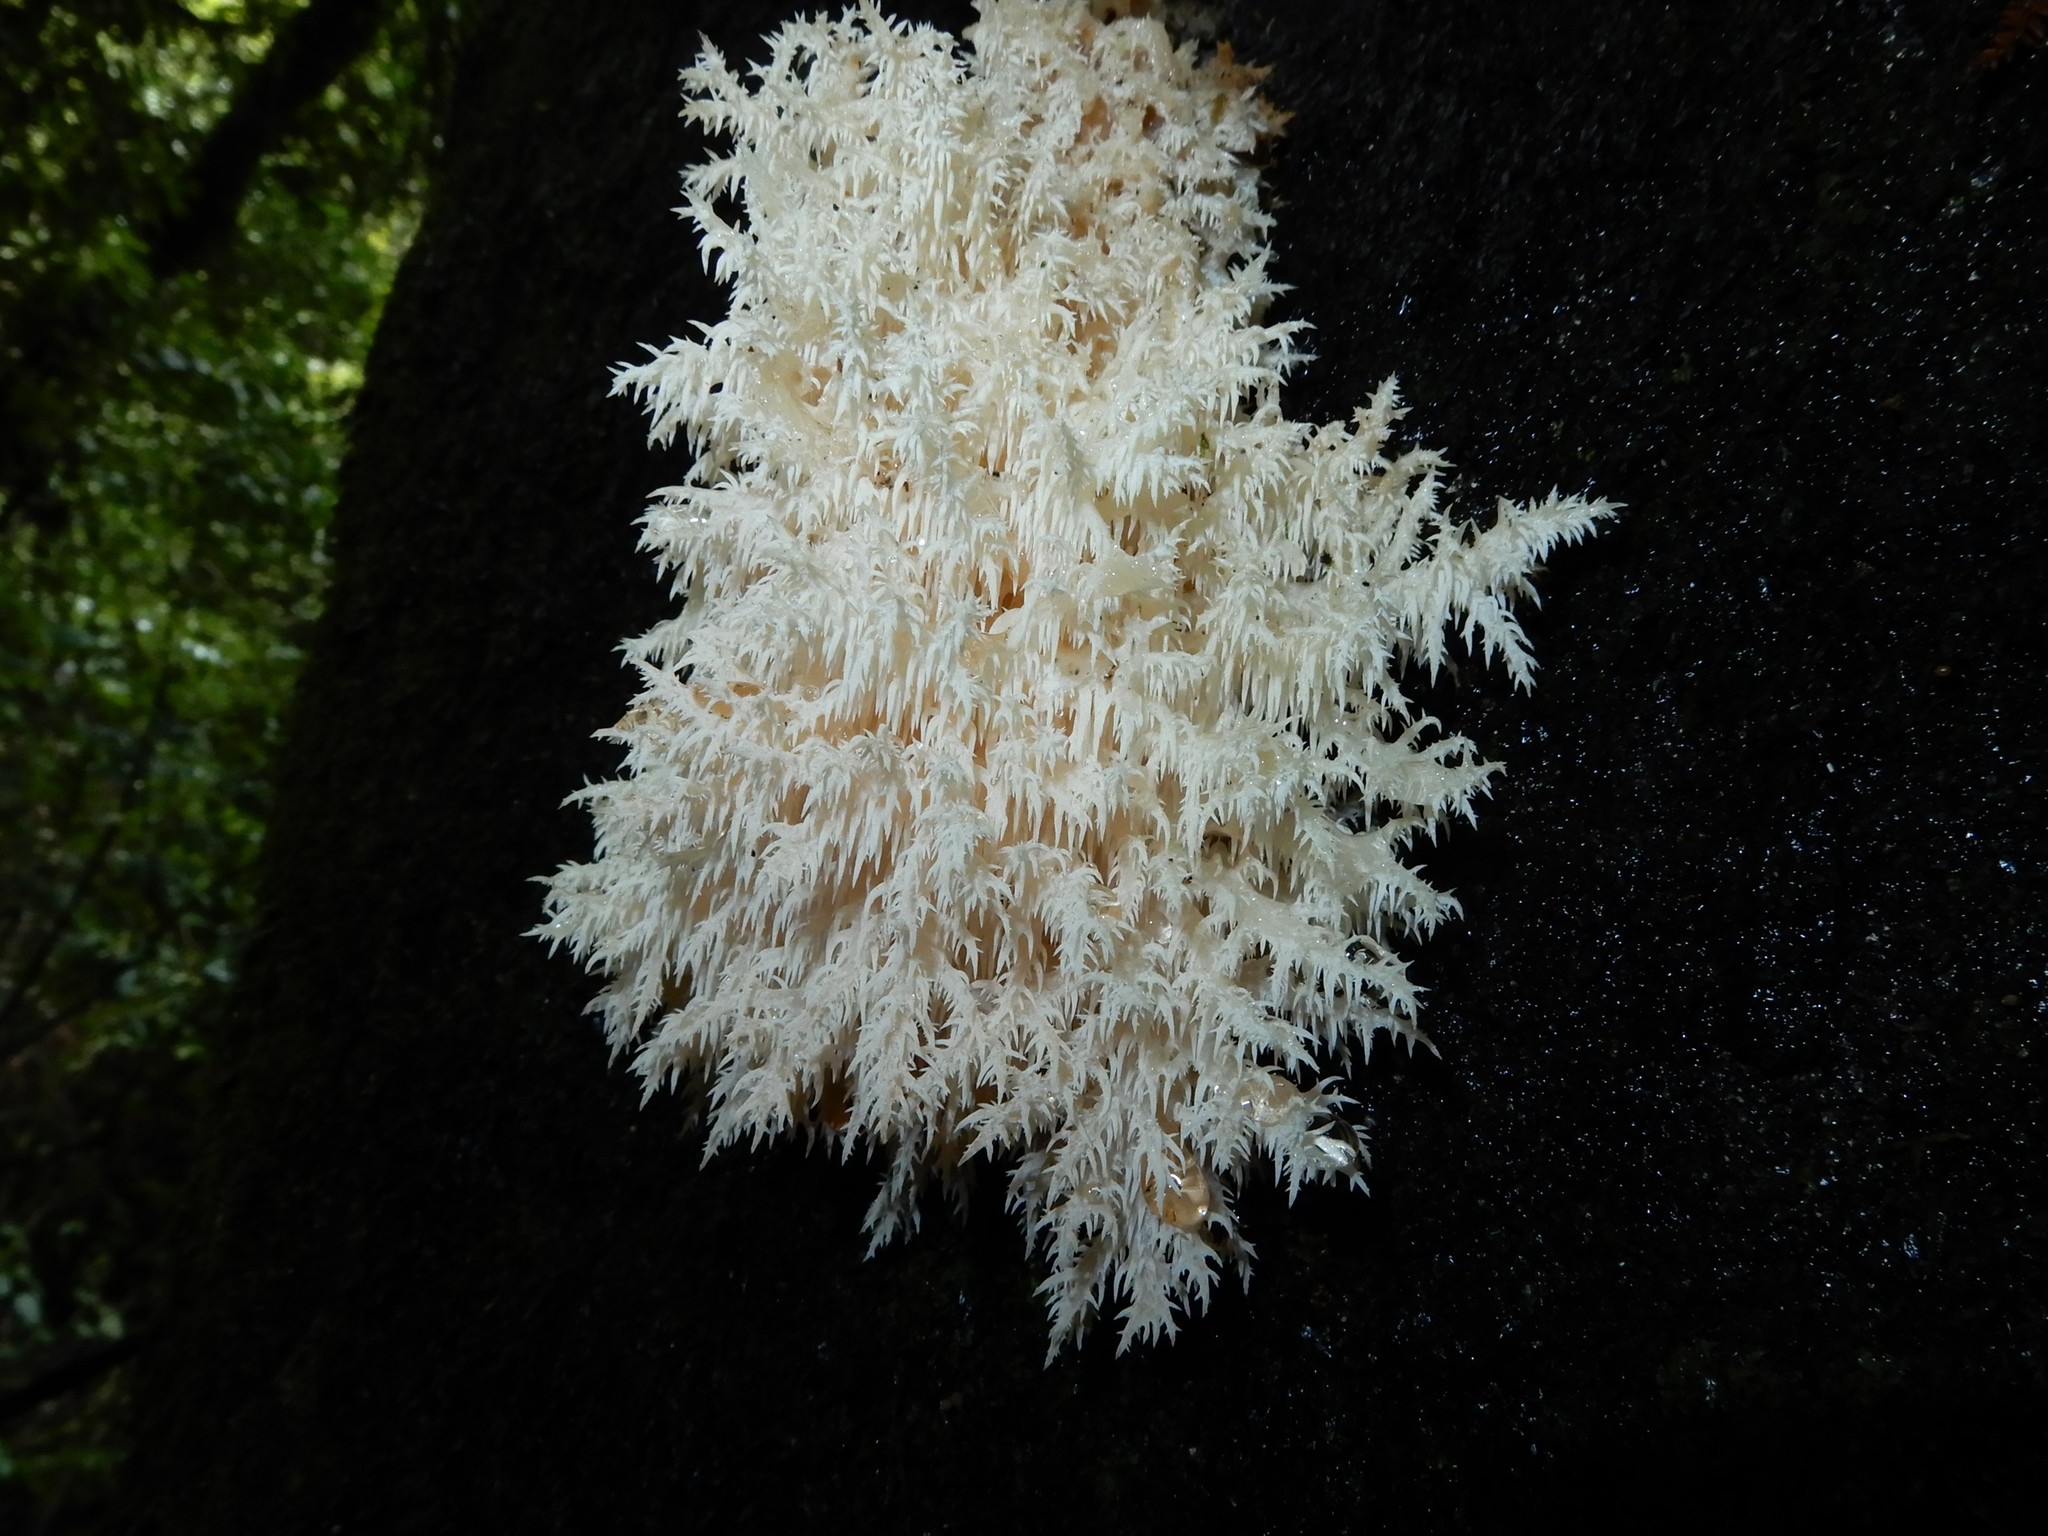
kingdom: Fungi
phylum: Basidiomycota
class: Agaricomycetes
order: Russulales
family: Hericiaceae
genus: Hericium
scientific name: Hericium novae-zealandiae
